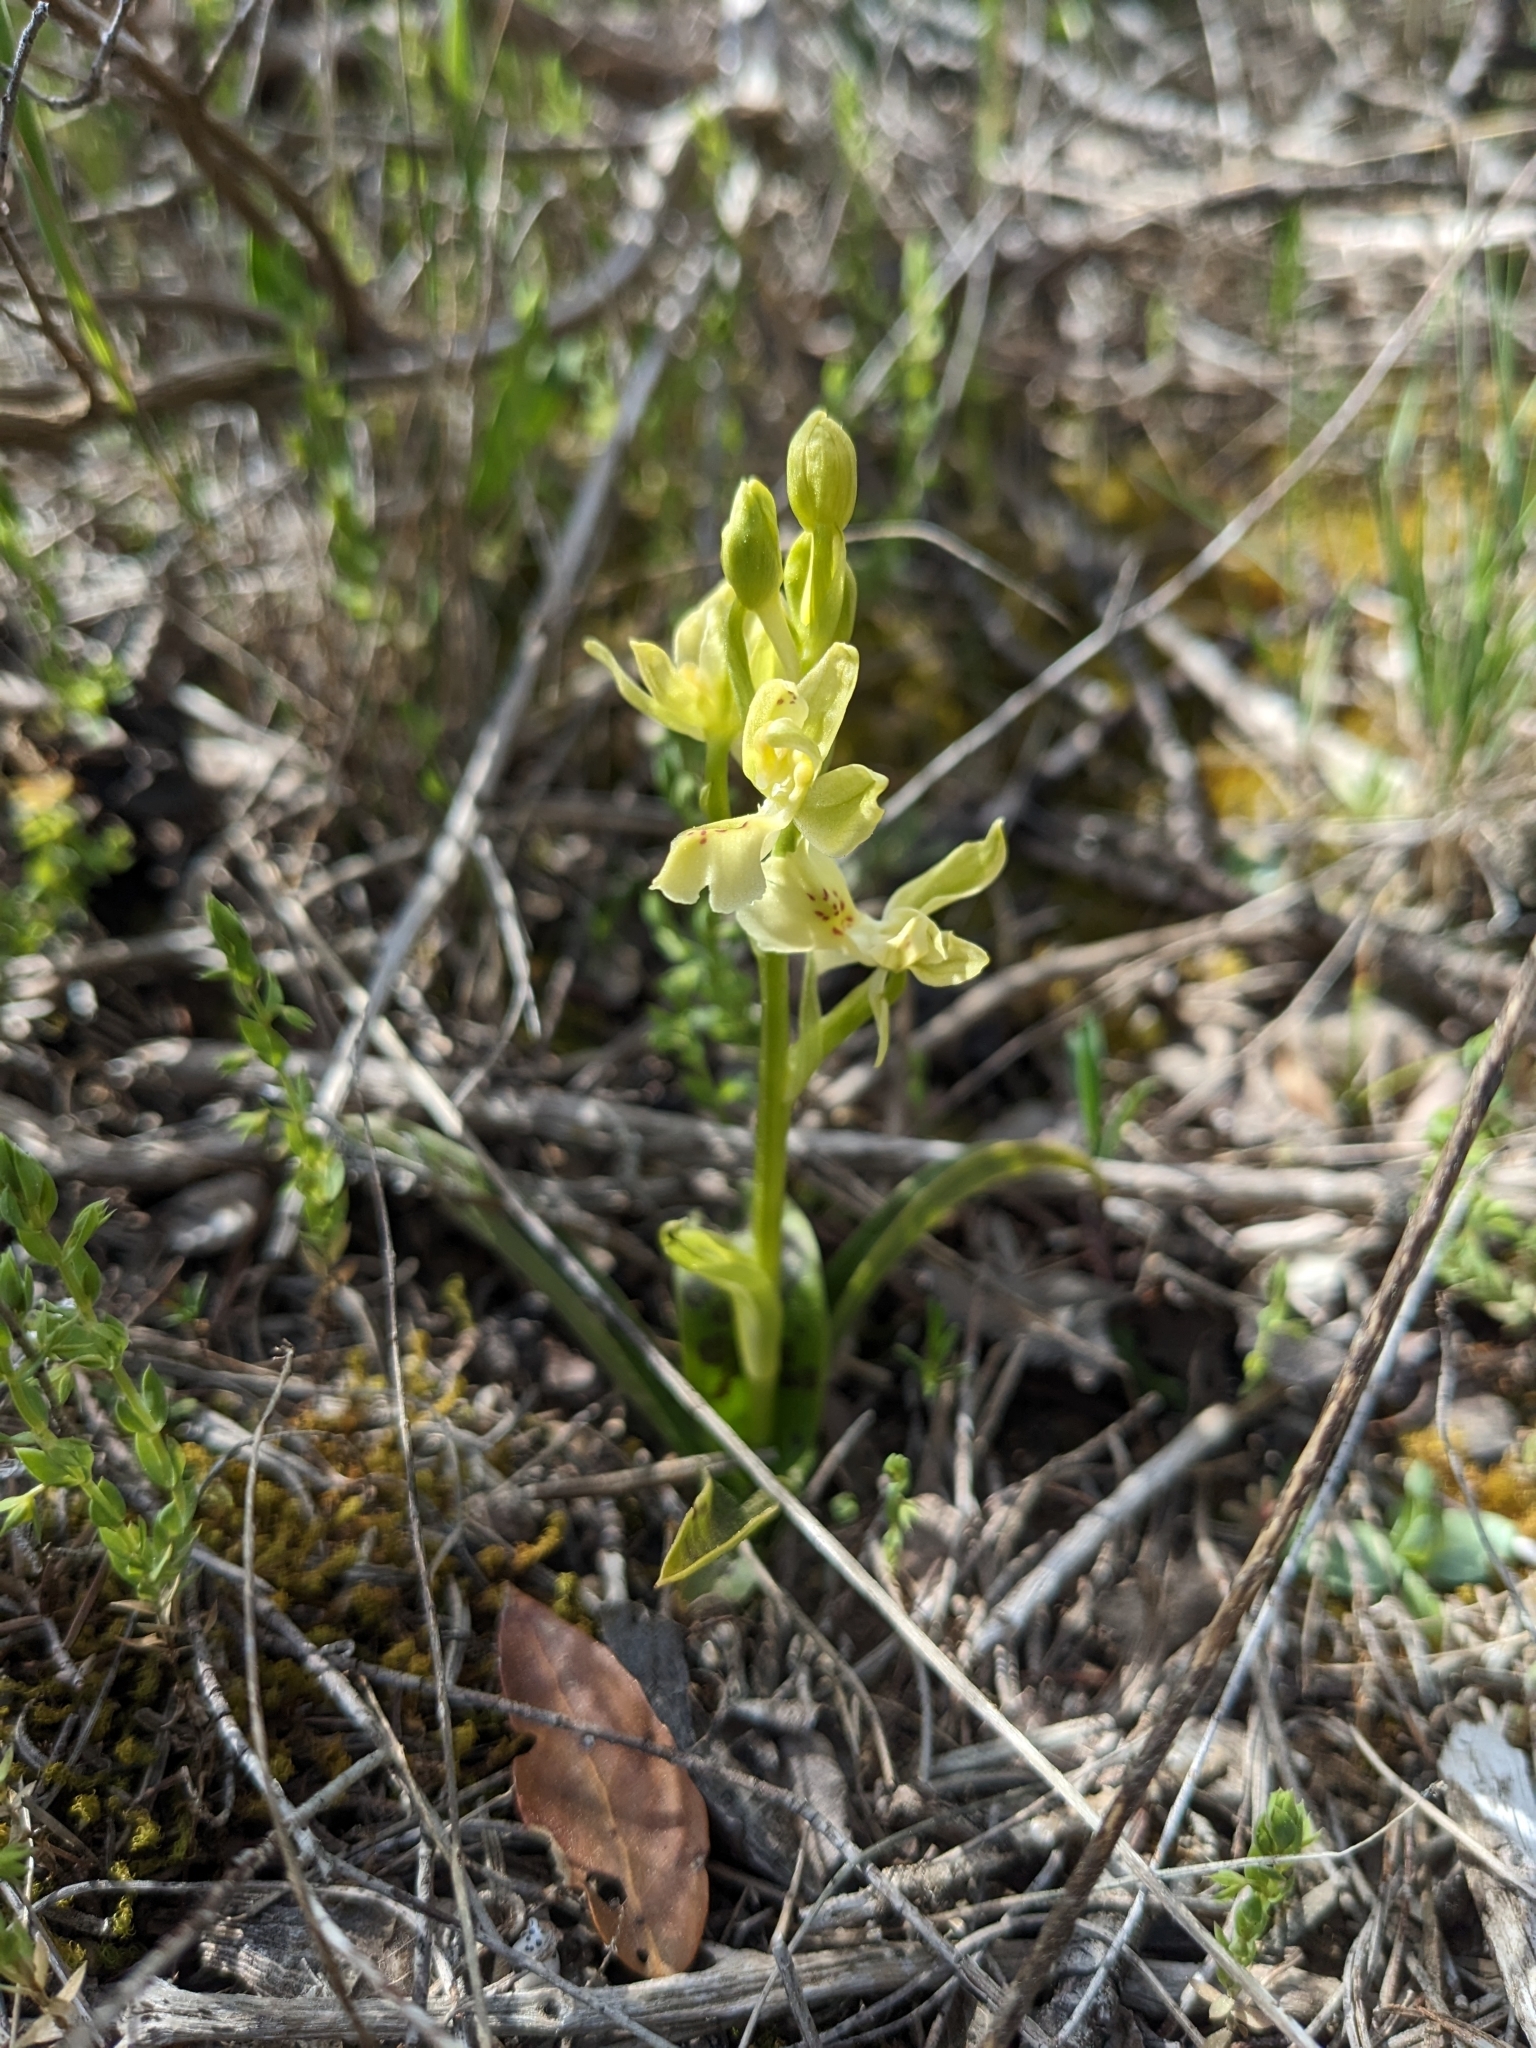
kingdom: Plantae
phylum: Tracheophyta
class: Liliopsida
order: Asparagales
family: Orchidaceae
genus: Orchis
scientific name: Orchis provincialis
